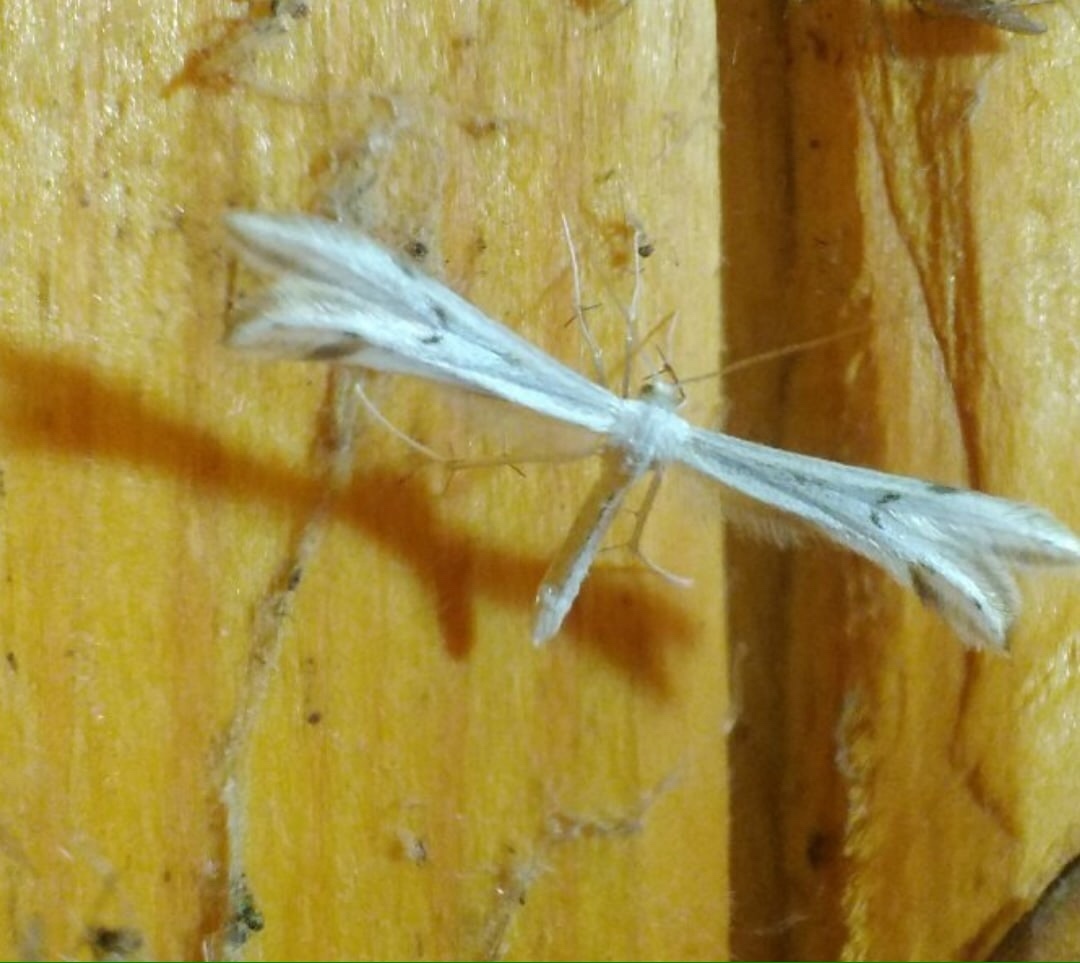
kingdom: Animalia
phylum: Arthropoda
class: Insecta
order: Lepidoptera
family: Pterophoridae
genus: Porrittia
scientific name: Porrittia galactodactyla
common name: Spotted white plume
